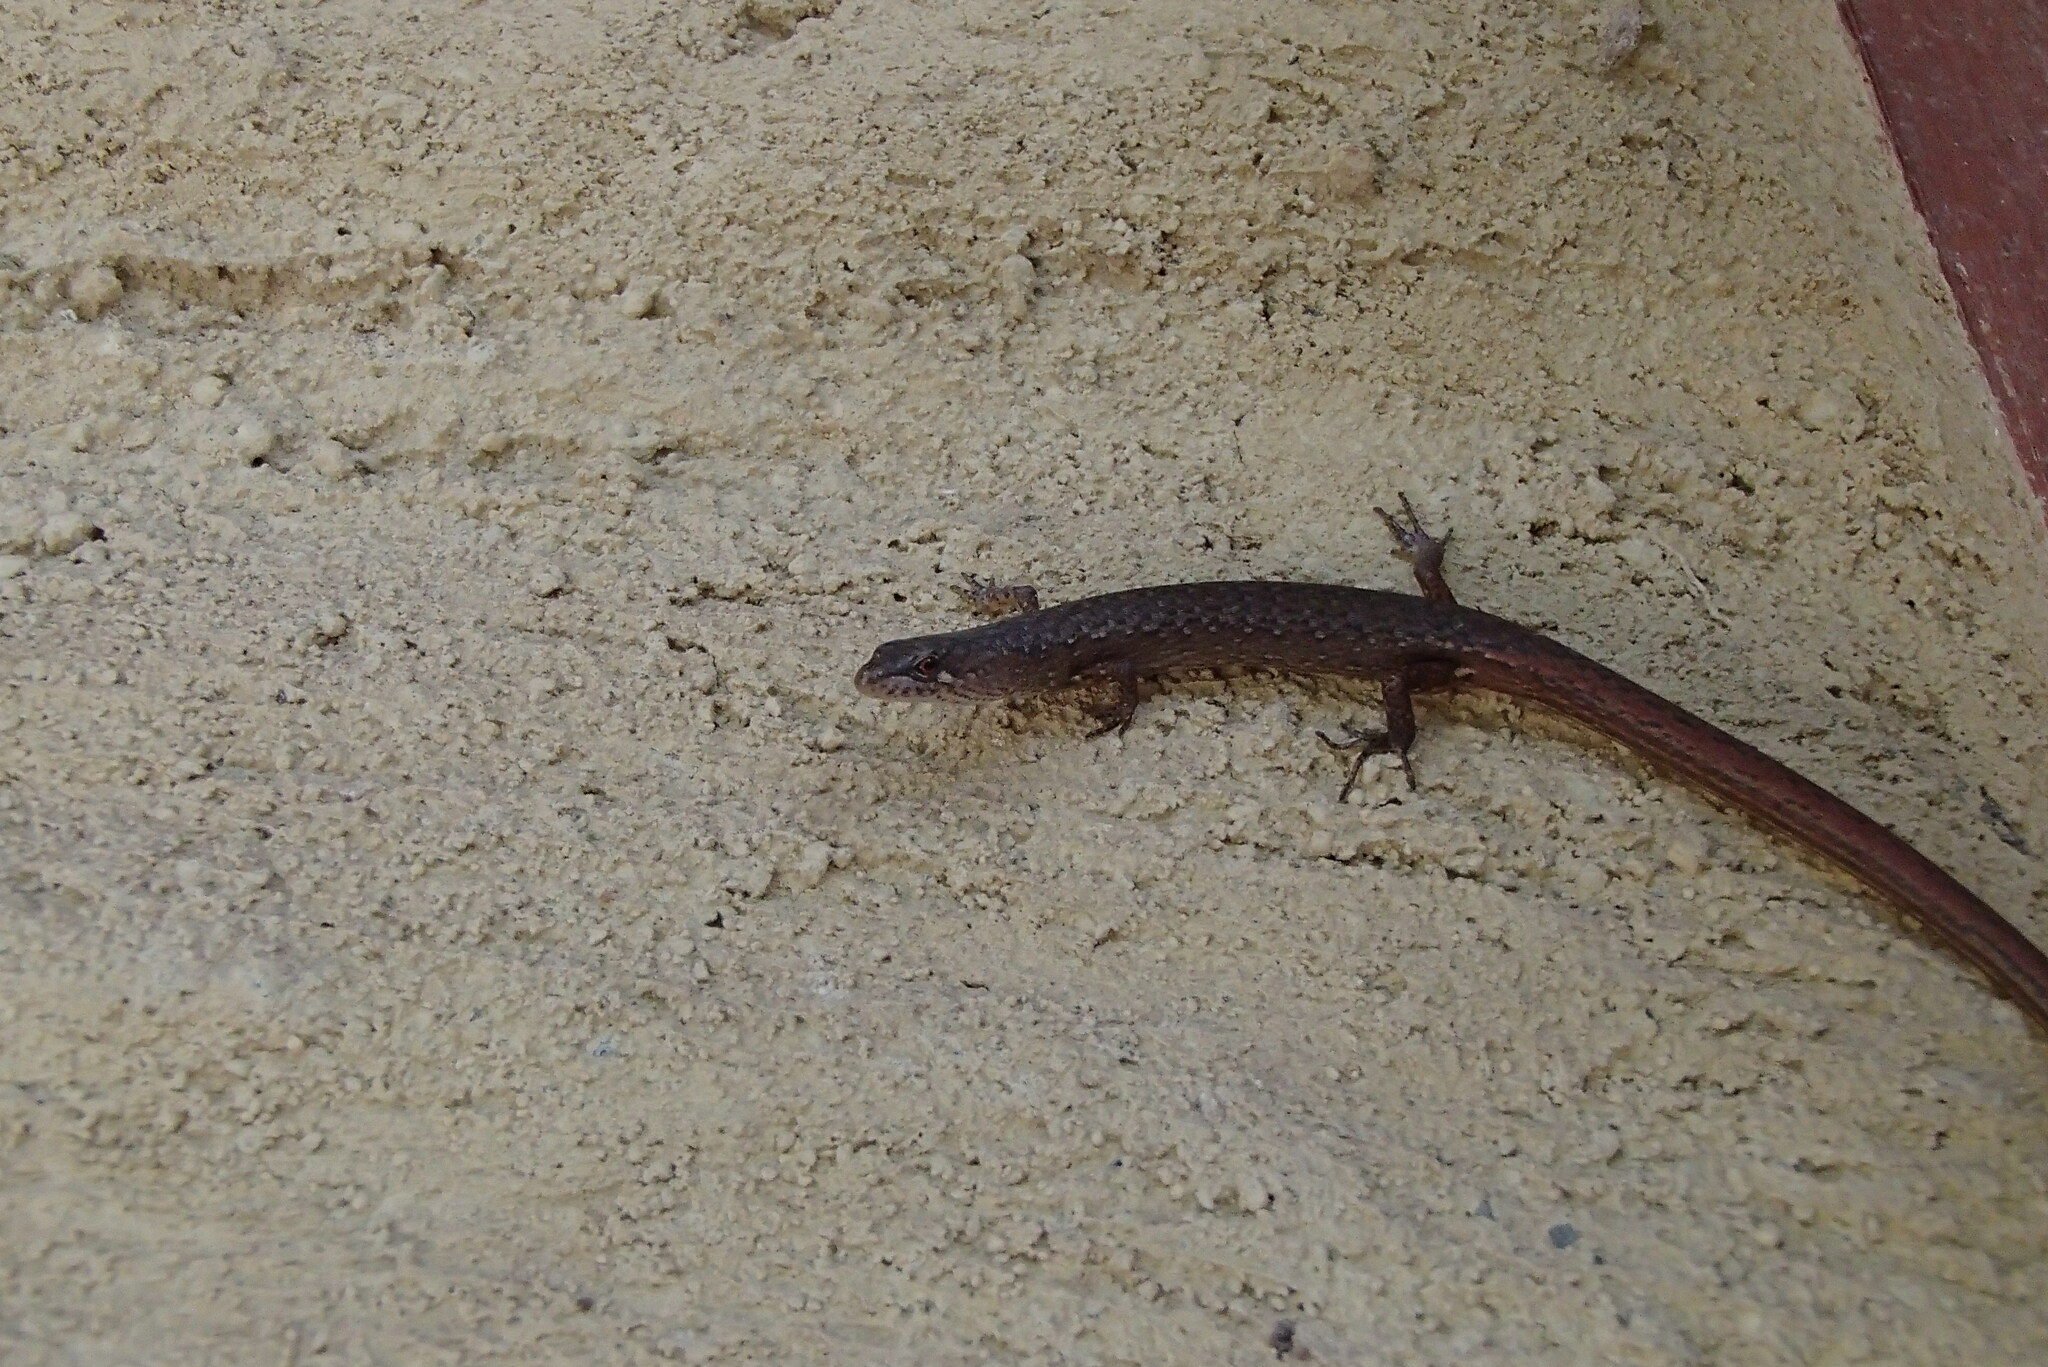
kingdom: Animalia
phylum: Chordata
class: Squamata
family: Scincidae
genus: Saproscincus
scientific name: Saproscincus mustelinus
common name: Southern weasel skink
